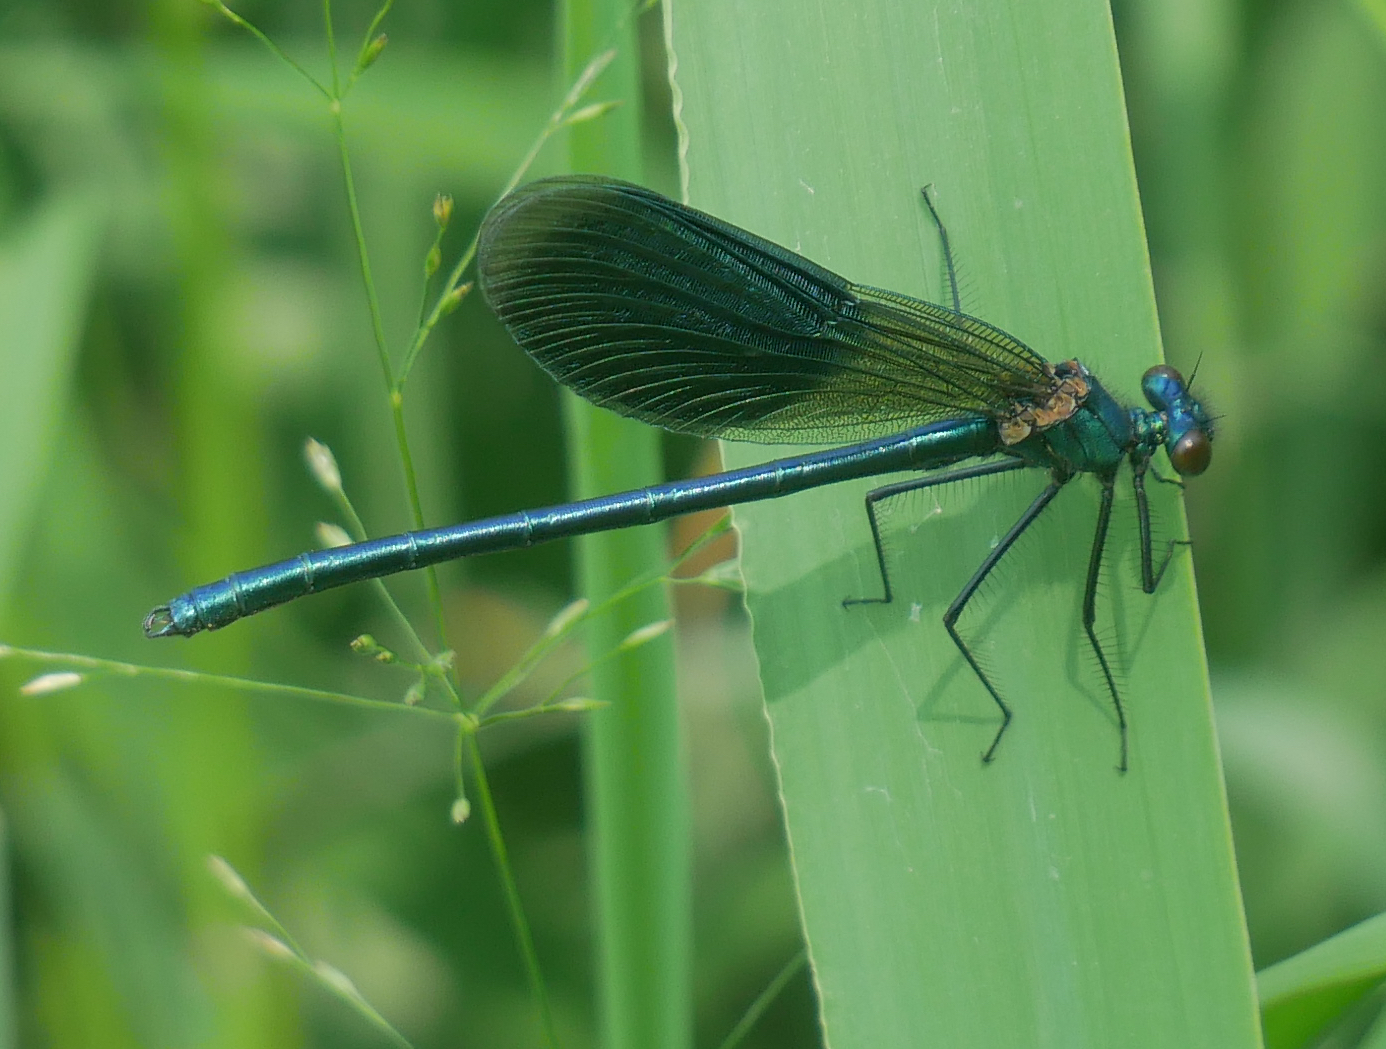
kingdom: Animalia
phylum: Arthropoda
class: Insecta
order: Odonata
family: Calopterygidae
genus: Calopteryx
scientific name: Calopteryx splendens
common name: Banded demoiselle
